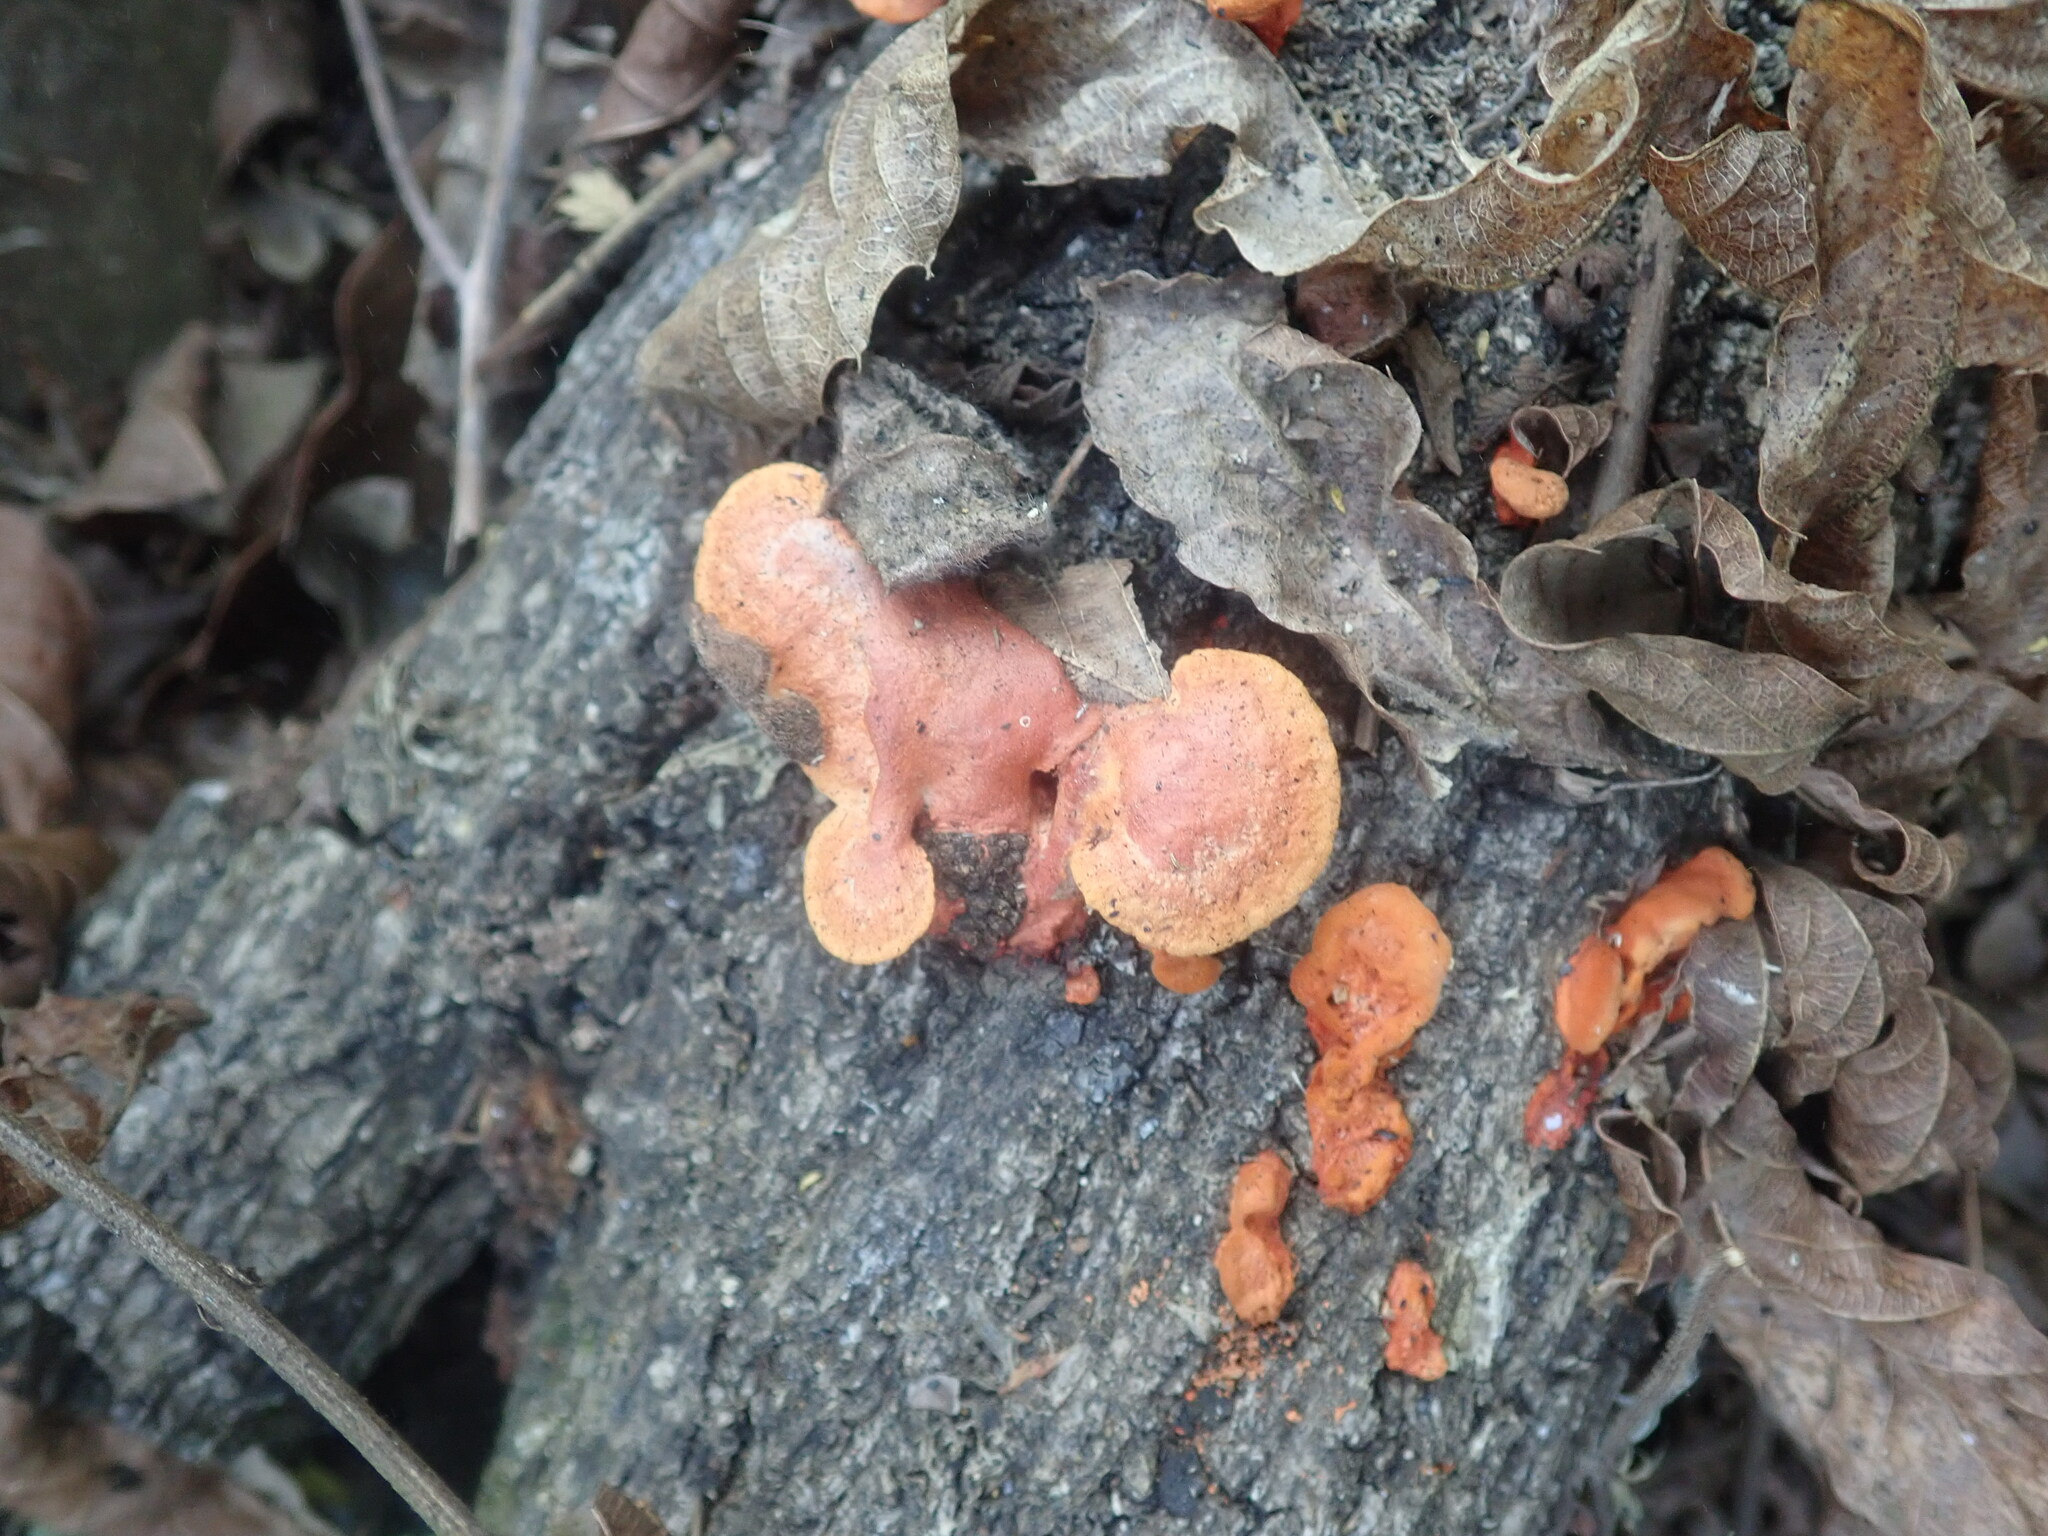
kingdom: Fungi
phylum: Basidiomycota
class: Agaricomycetes
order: Polyporales
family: Polyporaceae
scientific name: Polyporaceae
